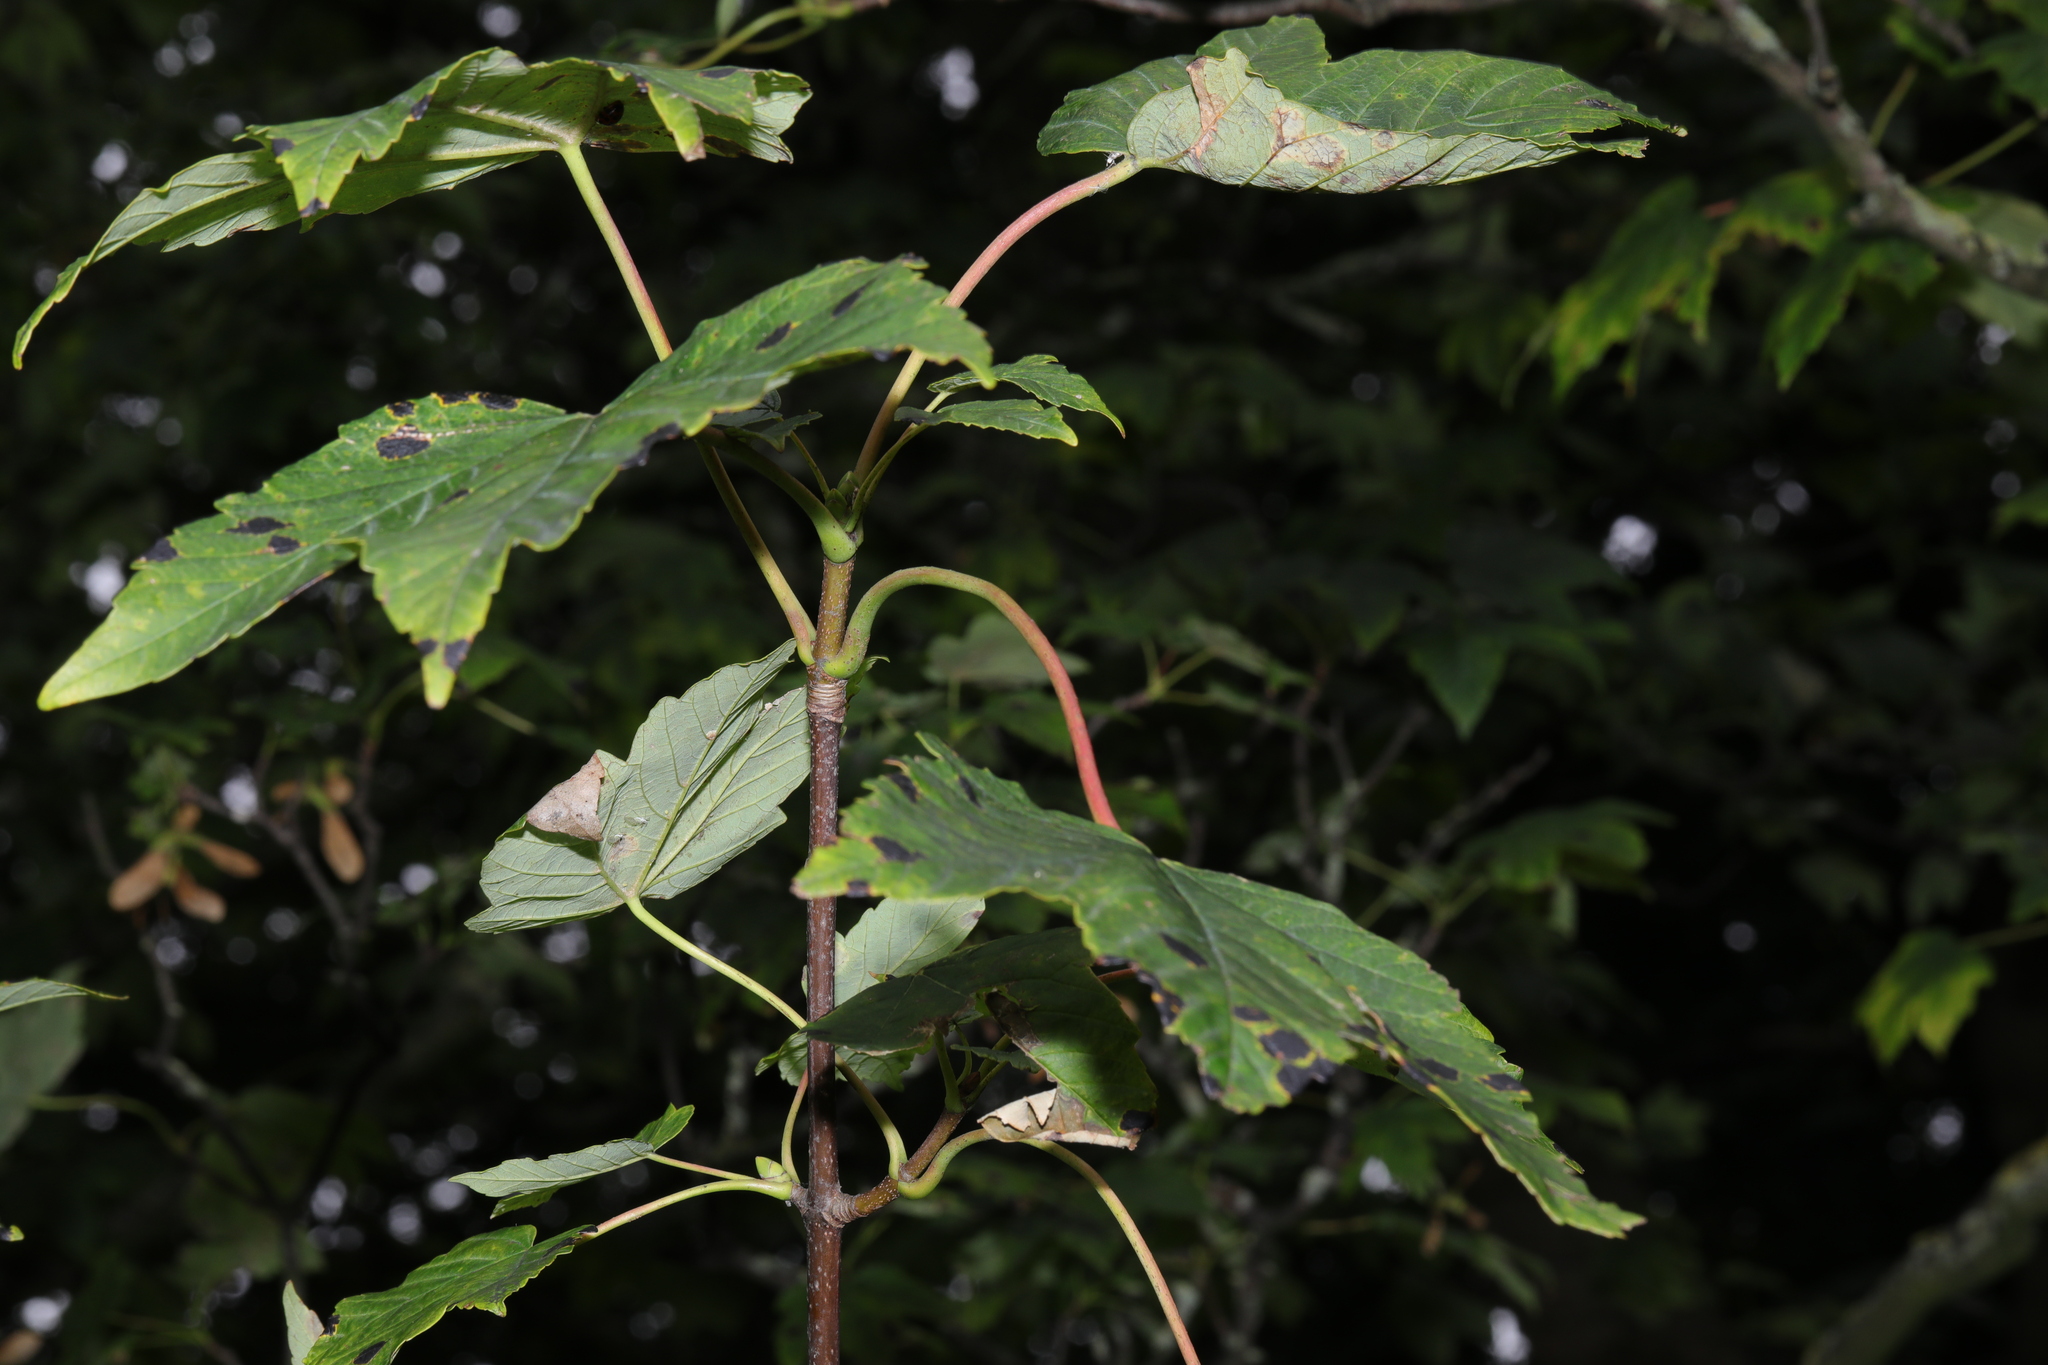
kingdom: Plantae
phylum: Tracheophyta
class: Magnoliopsida
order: Sapindales
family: Sapindaceae
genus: Acer
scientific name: Acer pseudoplatanus
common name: Sycamore
